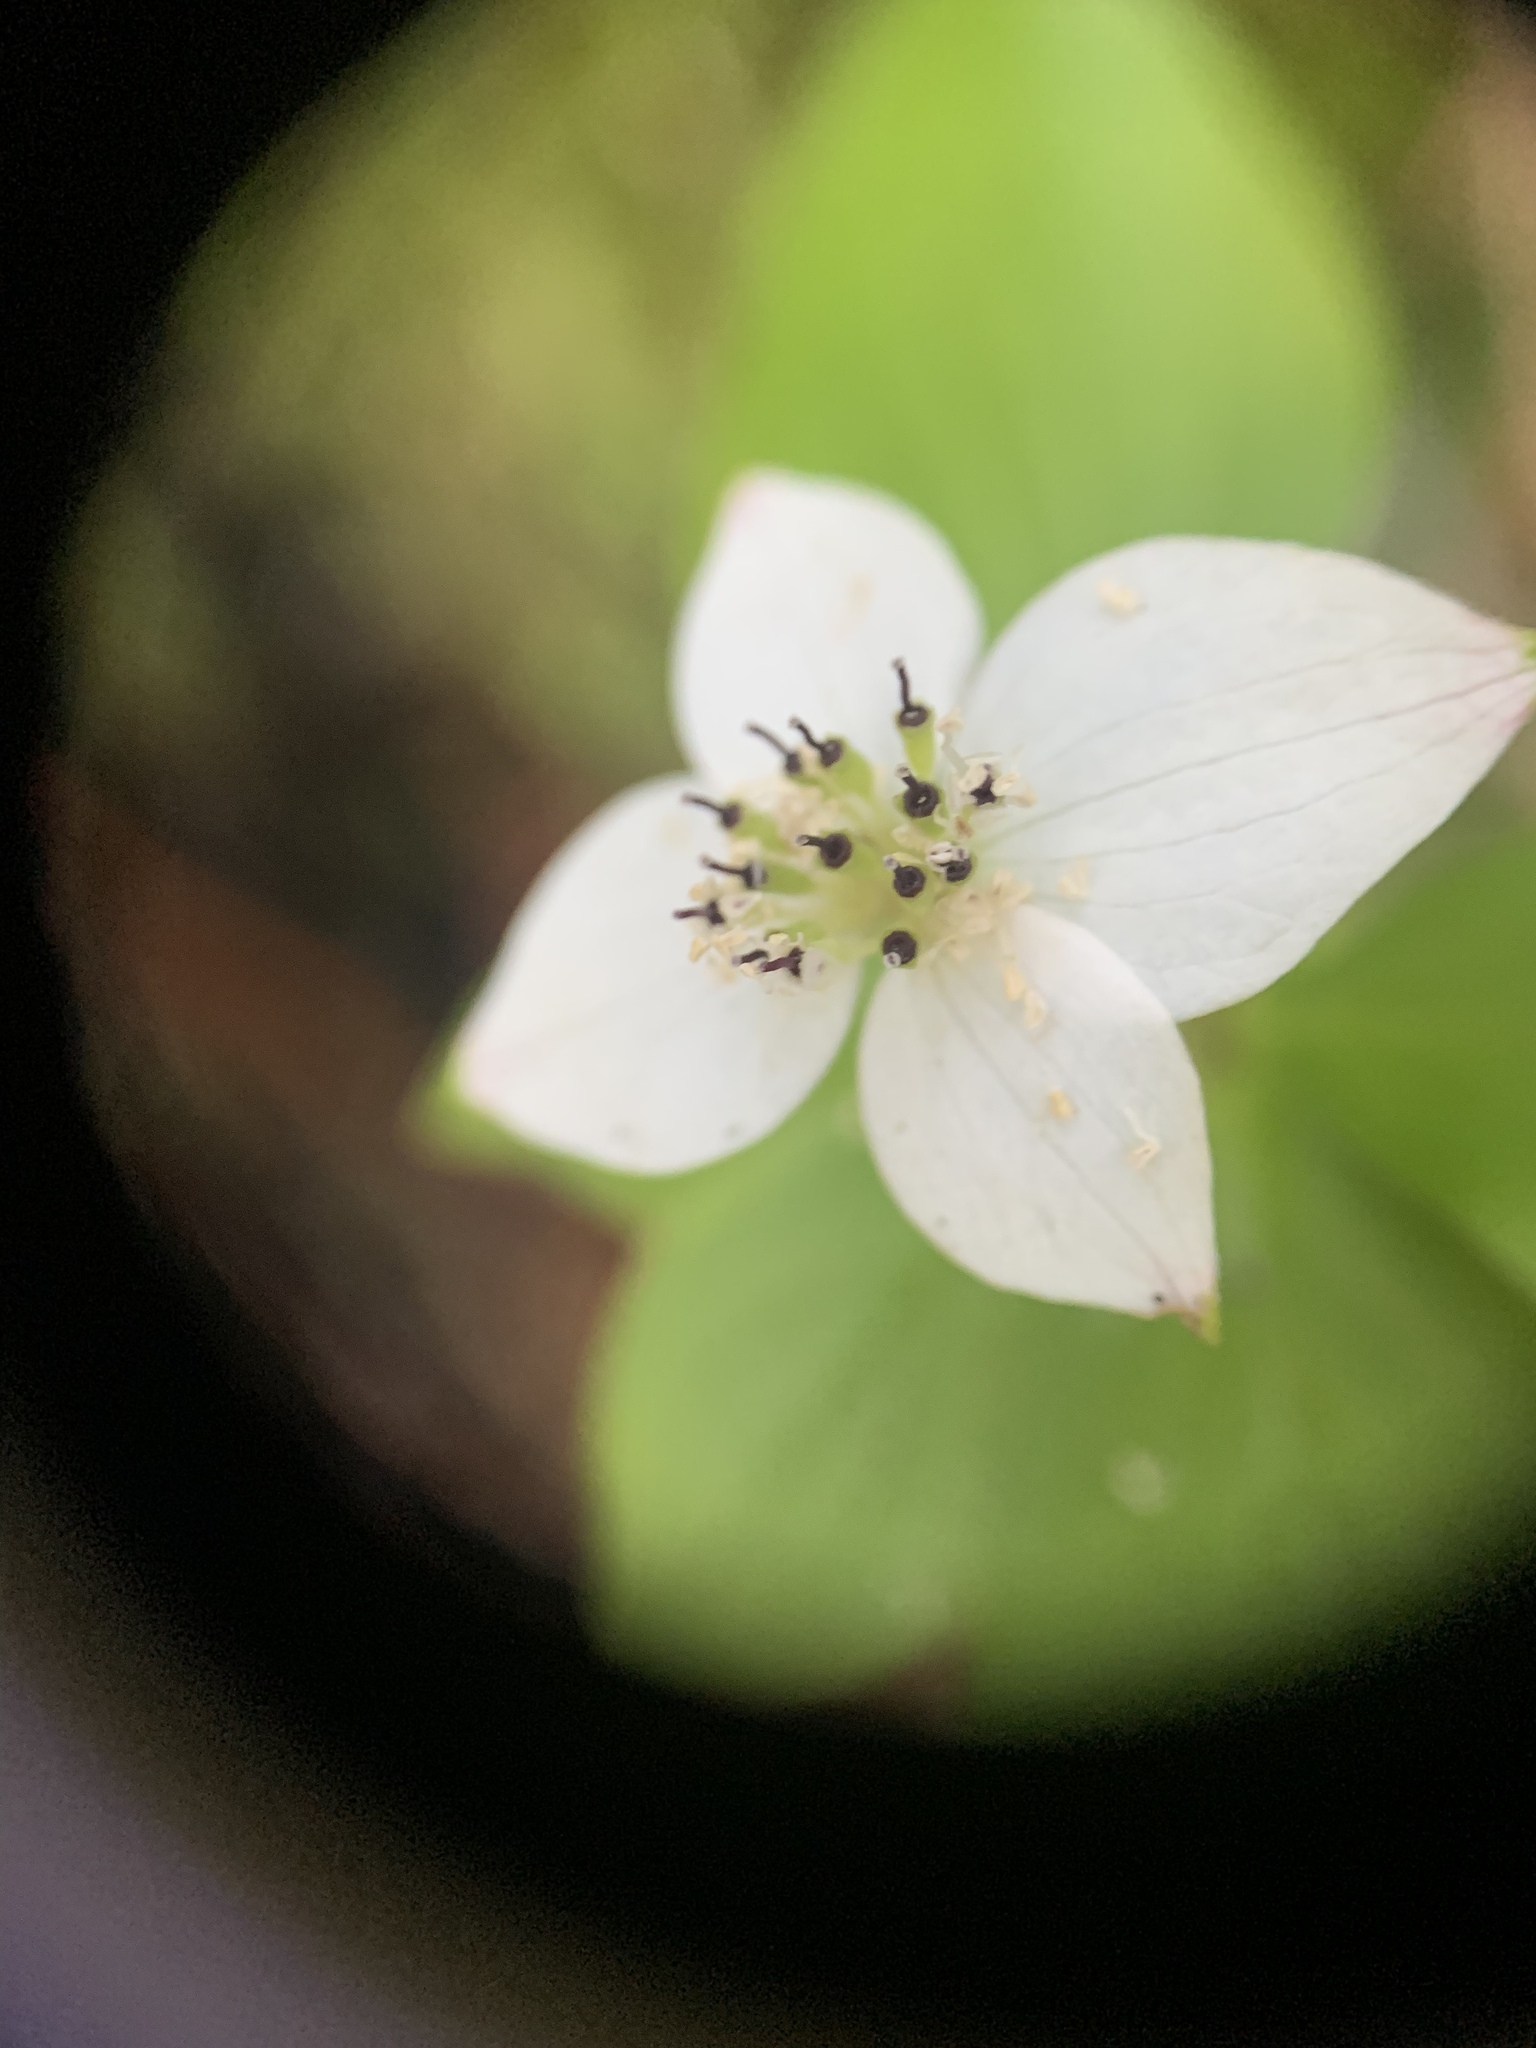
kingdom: Plantae
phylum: Tracheophyta
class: Magnoliopsida
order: Cornales
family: Cornaceae
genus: Cornus
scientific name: Cornus canadensis
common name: Creeping dogwood
